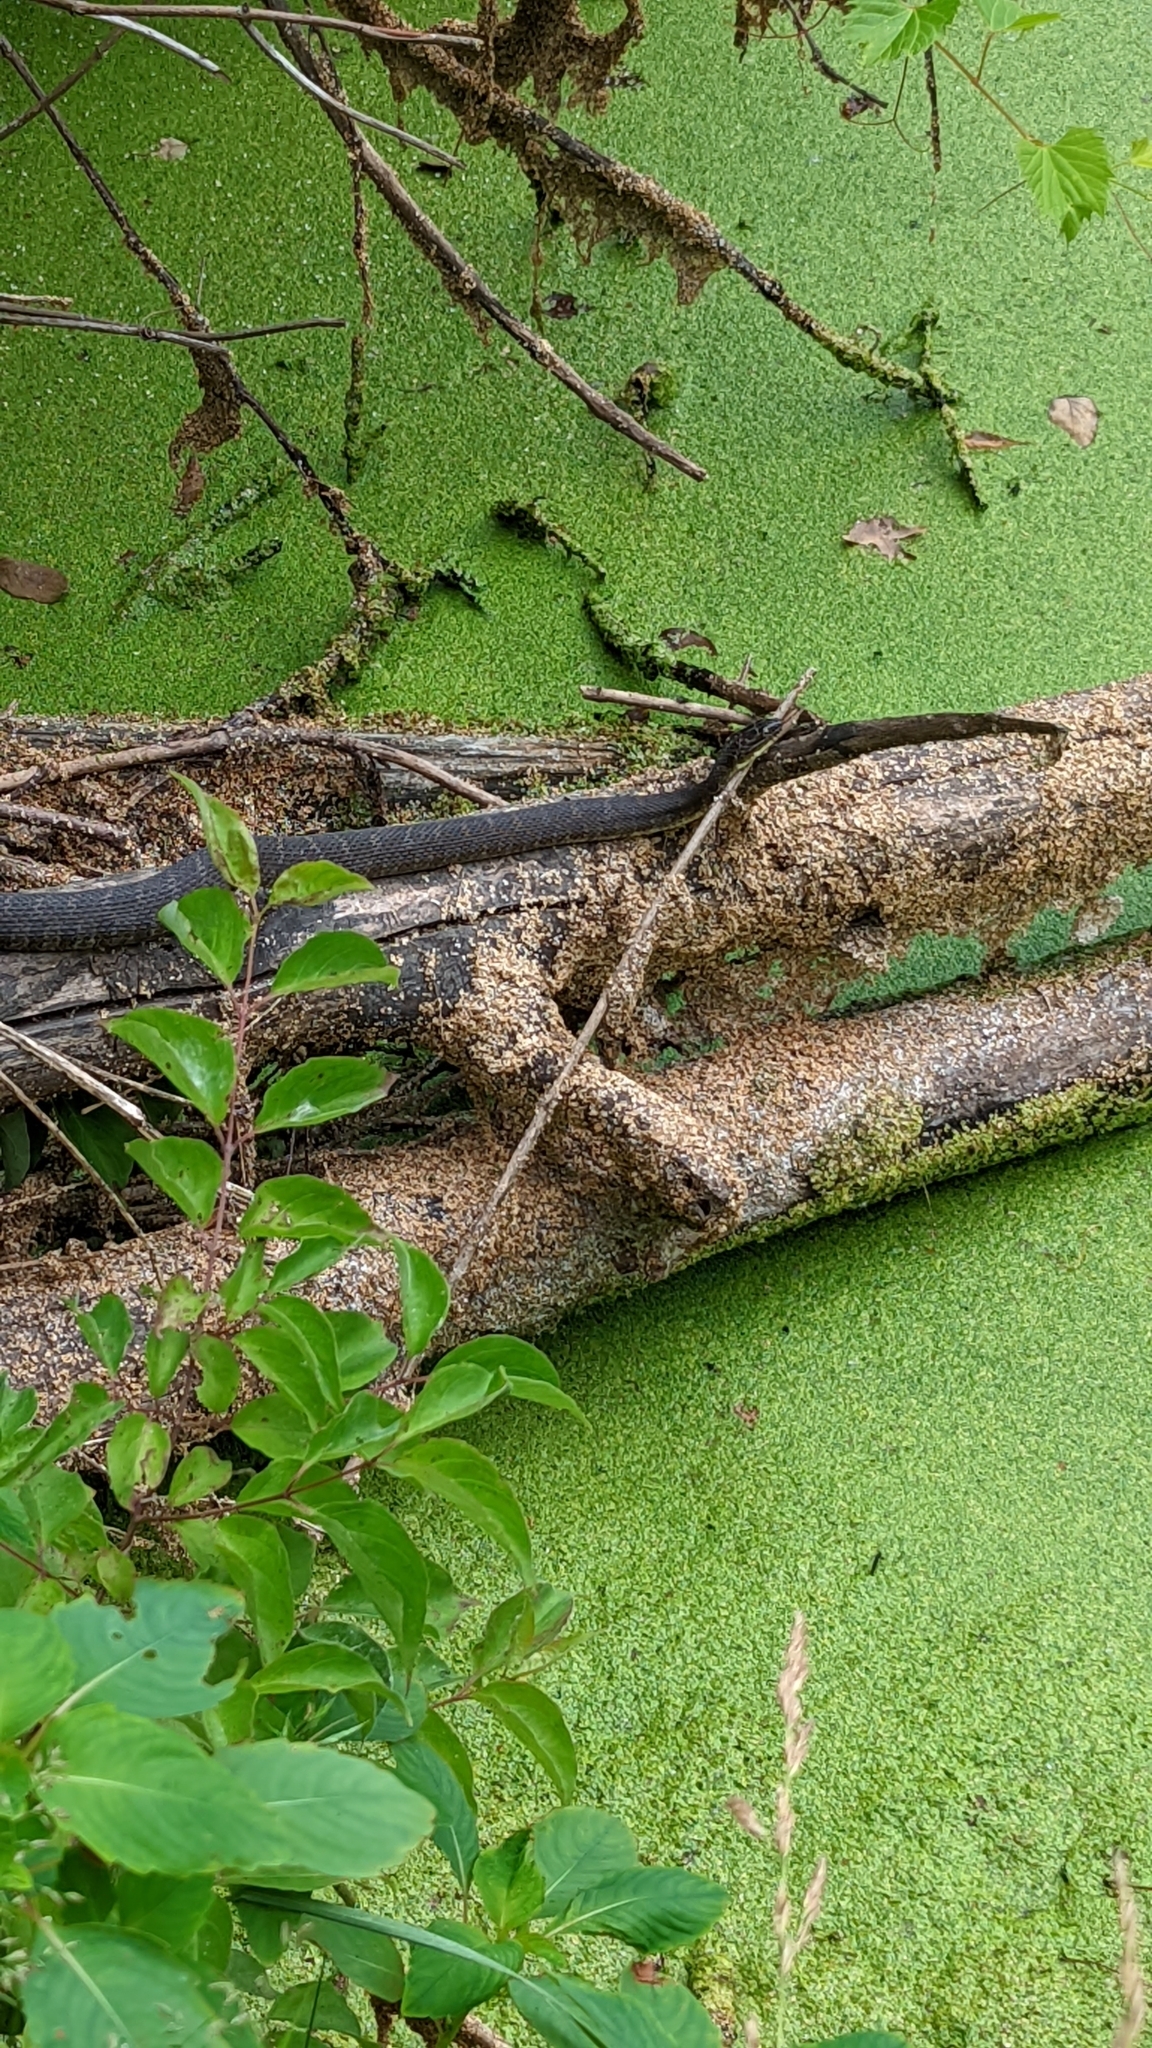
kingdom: Animalia
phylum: Chordata
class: Squamata
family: Colubridae
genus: Nerodia
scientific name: Nerodia sipedon
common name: Northern water snake
